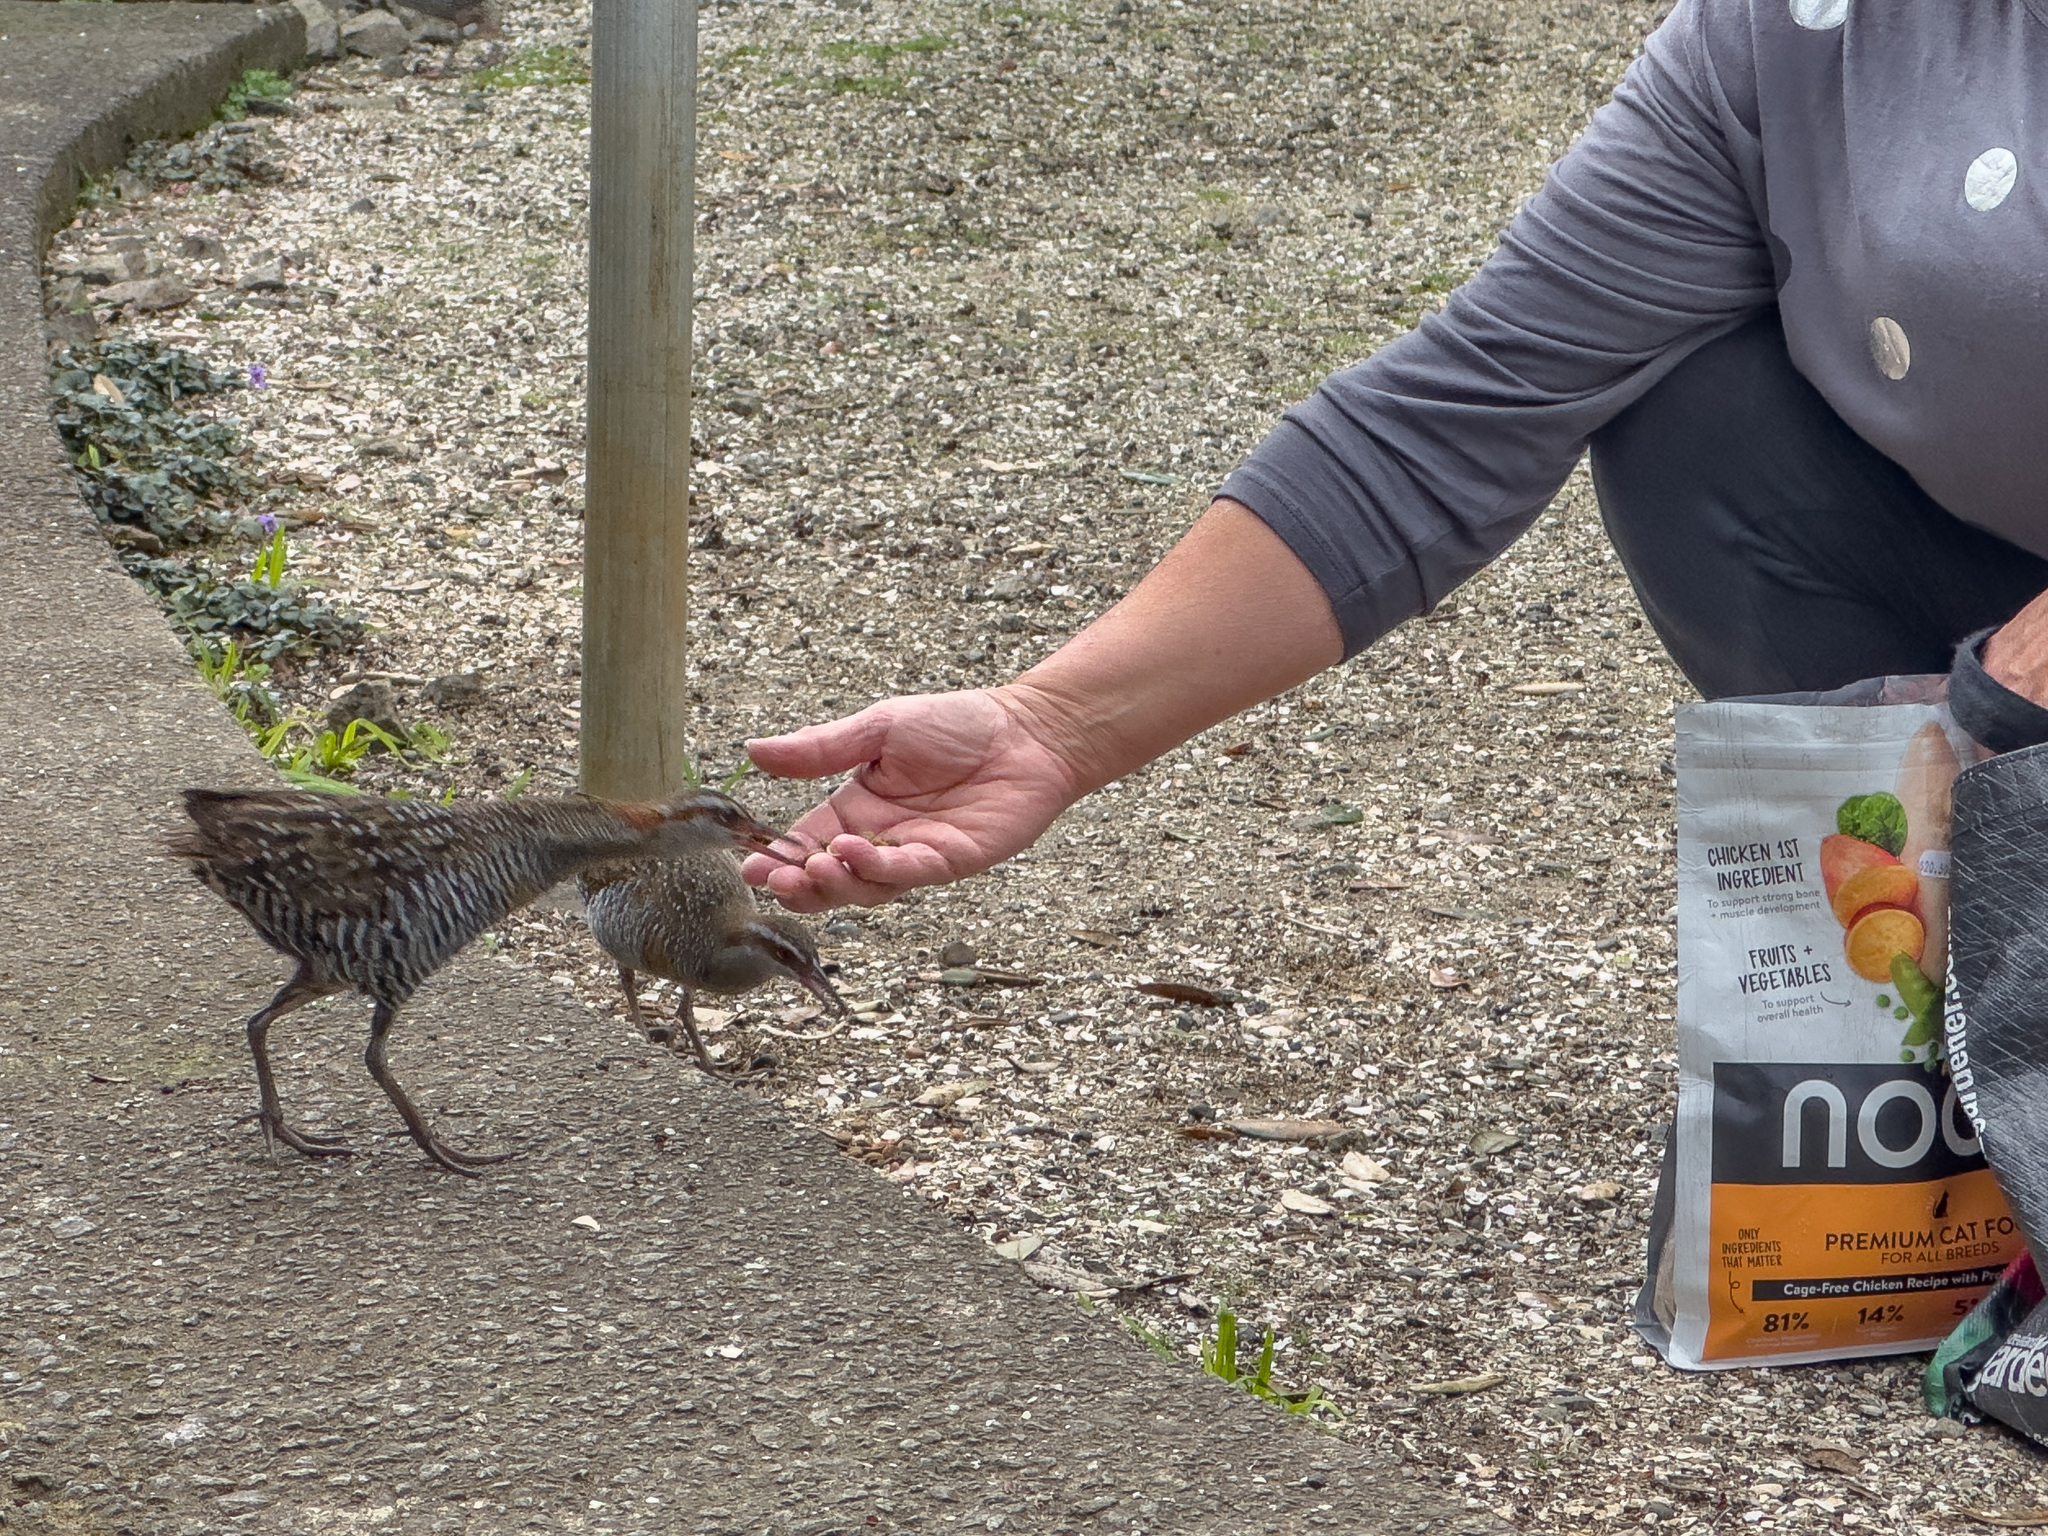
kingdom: Animalia
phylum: Chordata
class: Aves
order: Gruiformes
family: Rallidae
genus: Gallirallus
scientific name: Gallirallus philippensis
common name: Buff-banded rail
